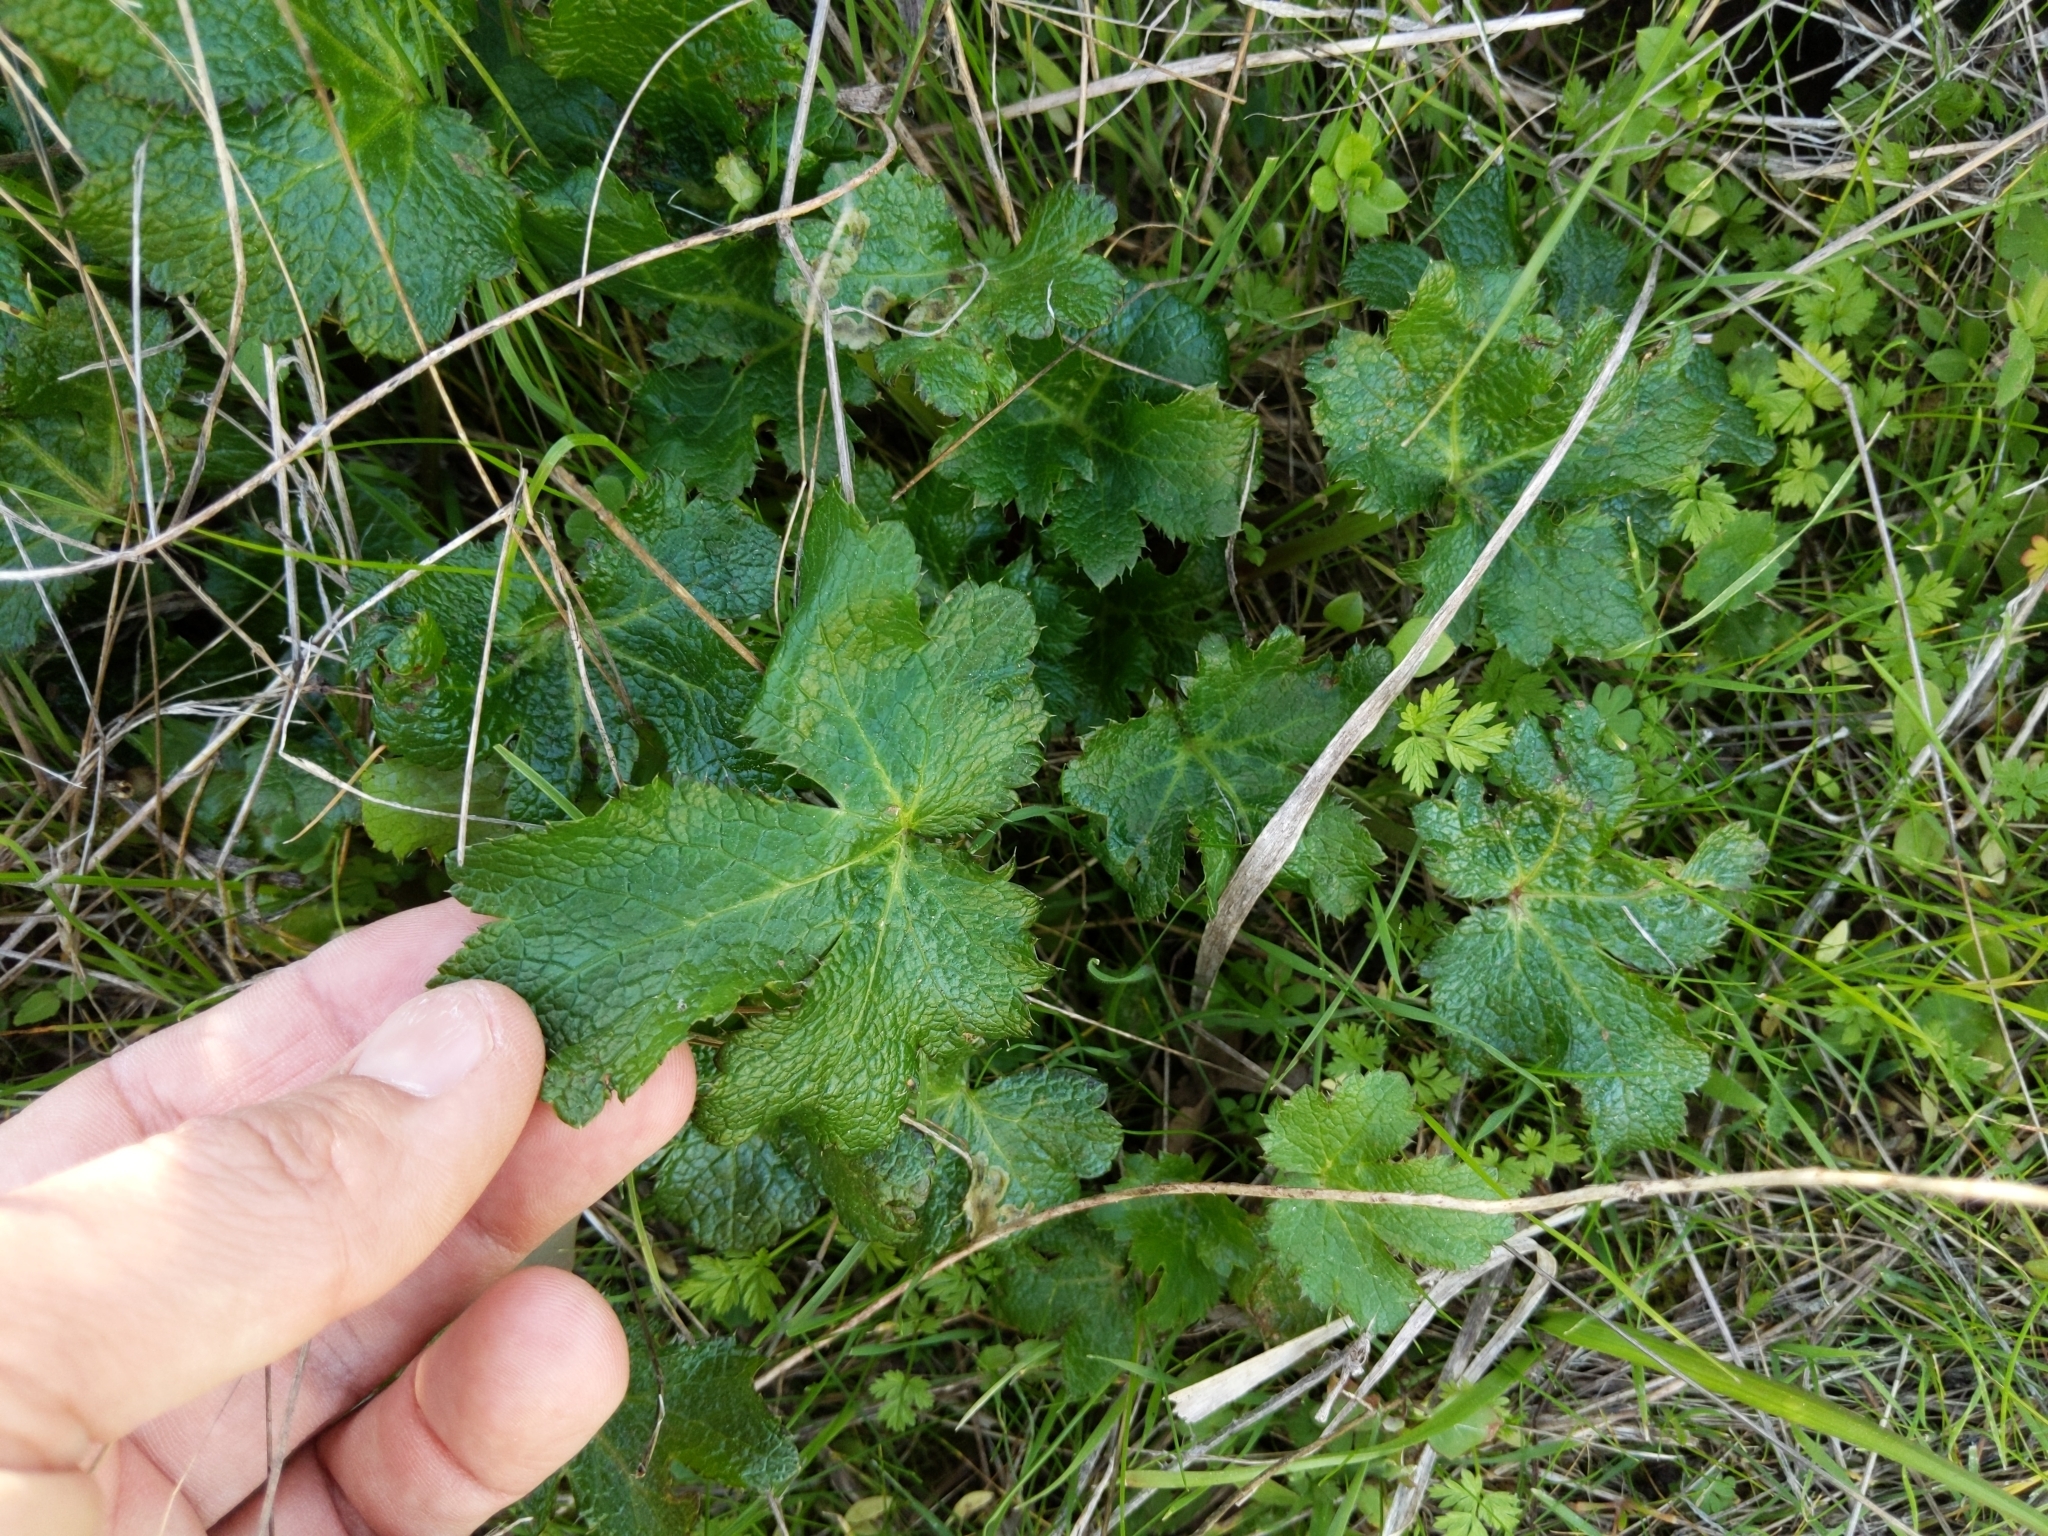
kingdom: Plantae
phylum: Tracheophyta
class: Magnoliopsida
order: Apiales
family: Apiaceae
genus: Sanicula
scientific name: Sanicula crassicaulis
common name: Western snakeroot
